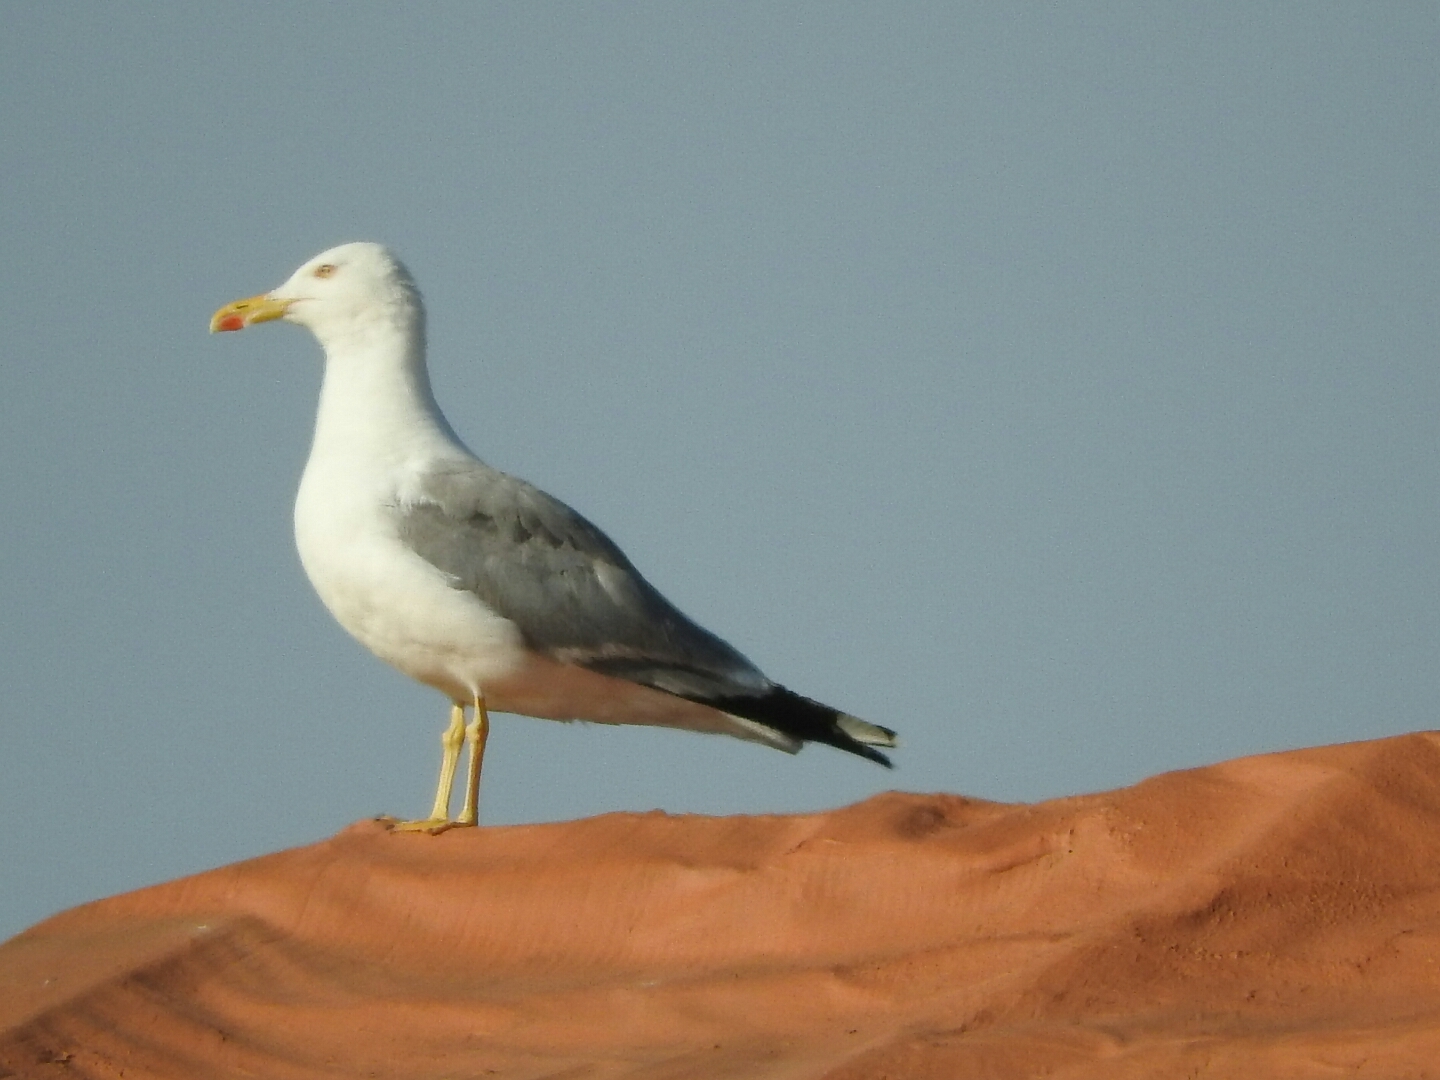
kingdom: Animalia
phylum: Chordata
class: Aves
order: Charadriiformes
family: Laridae
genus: Larus
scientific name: Larus michahellis
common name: Yellow-legged gull
